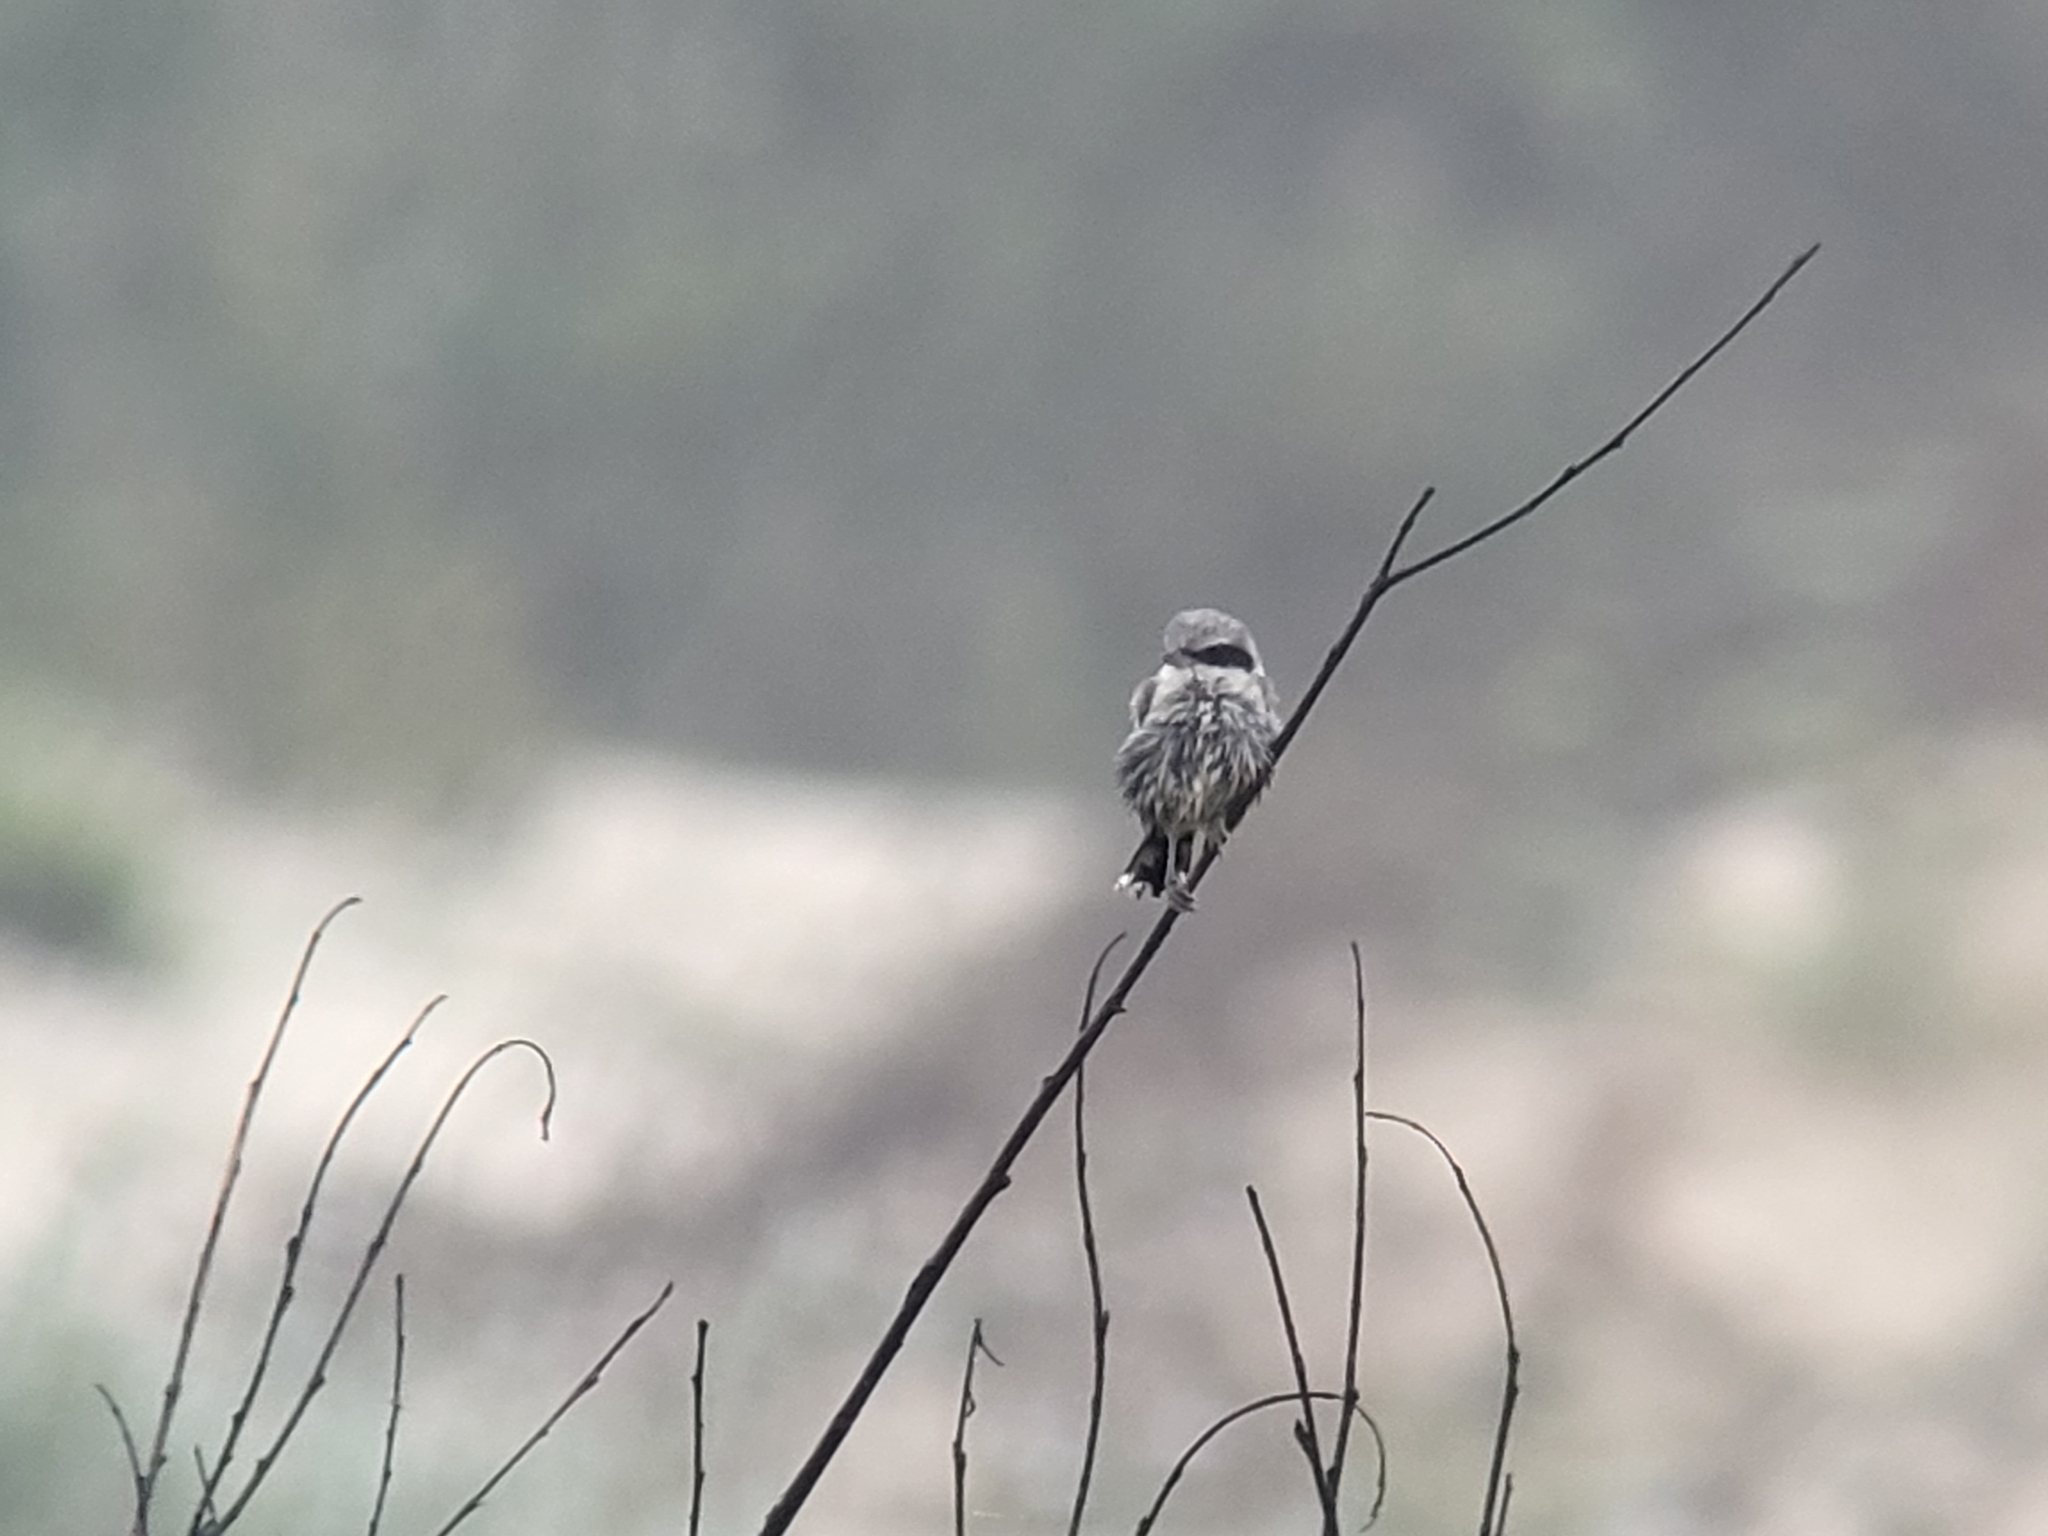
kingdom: Animalia
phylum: Chordata
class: Aves
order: Passeriformes
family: Laniidae
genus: Lanius
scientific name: Lanius ludovicianus
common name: Loggerhead shrike
